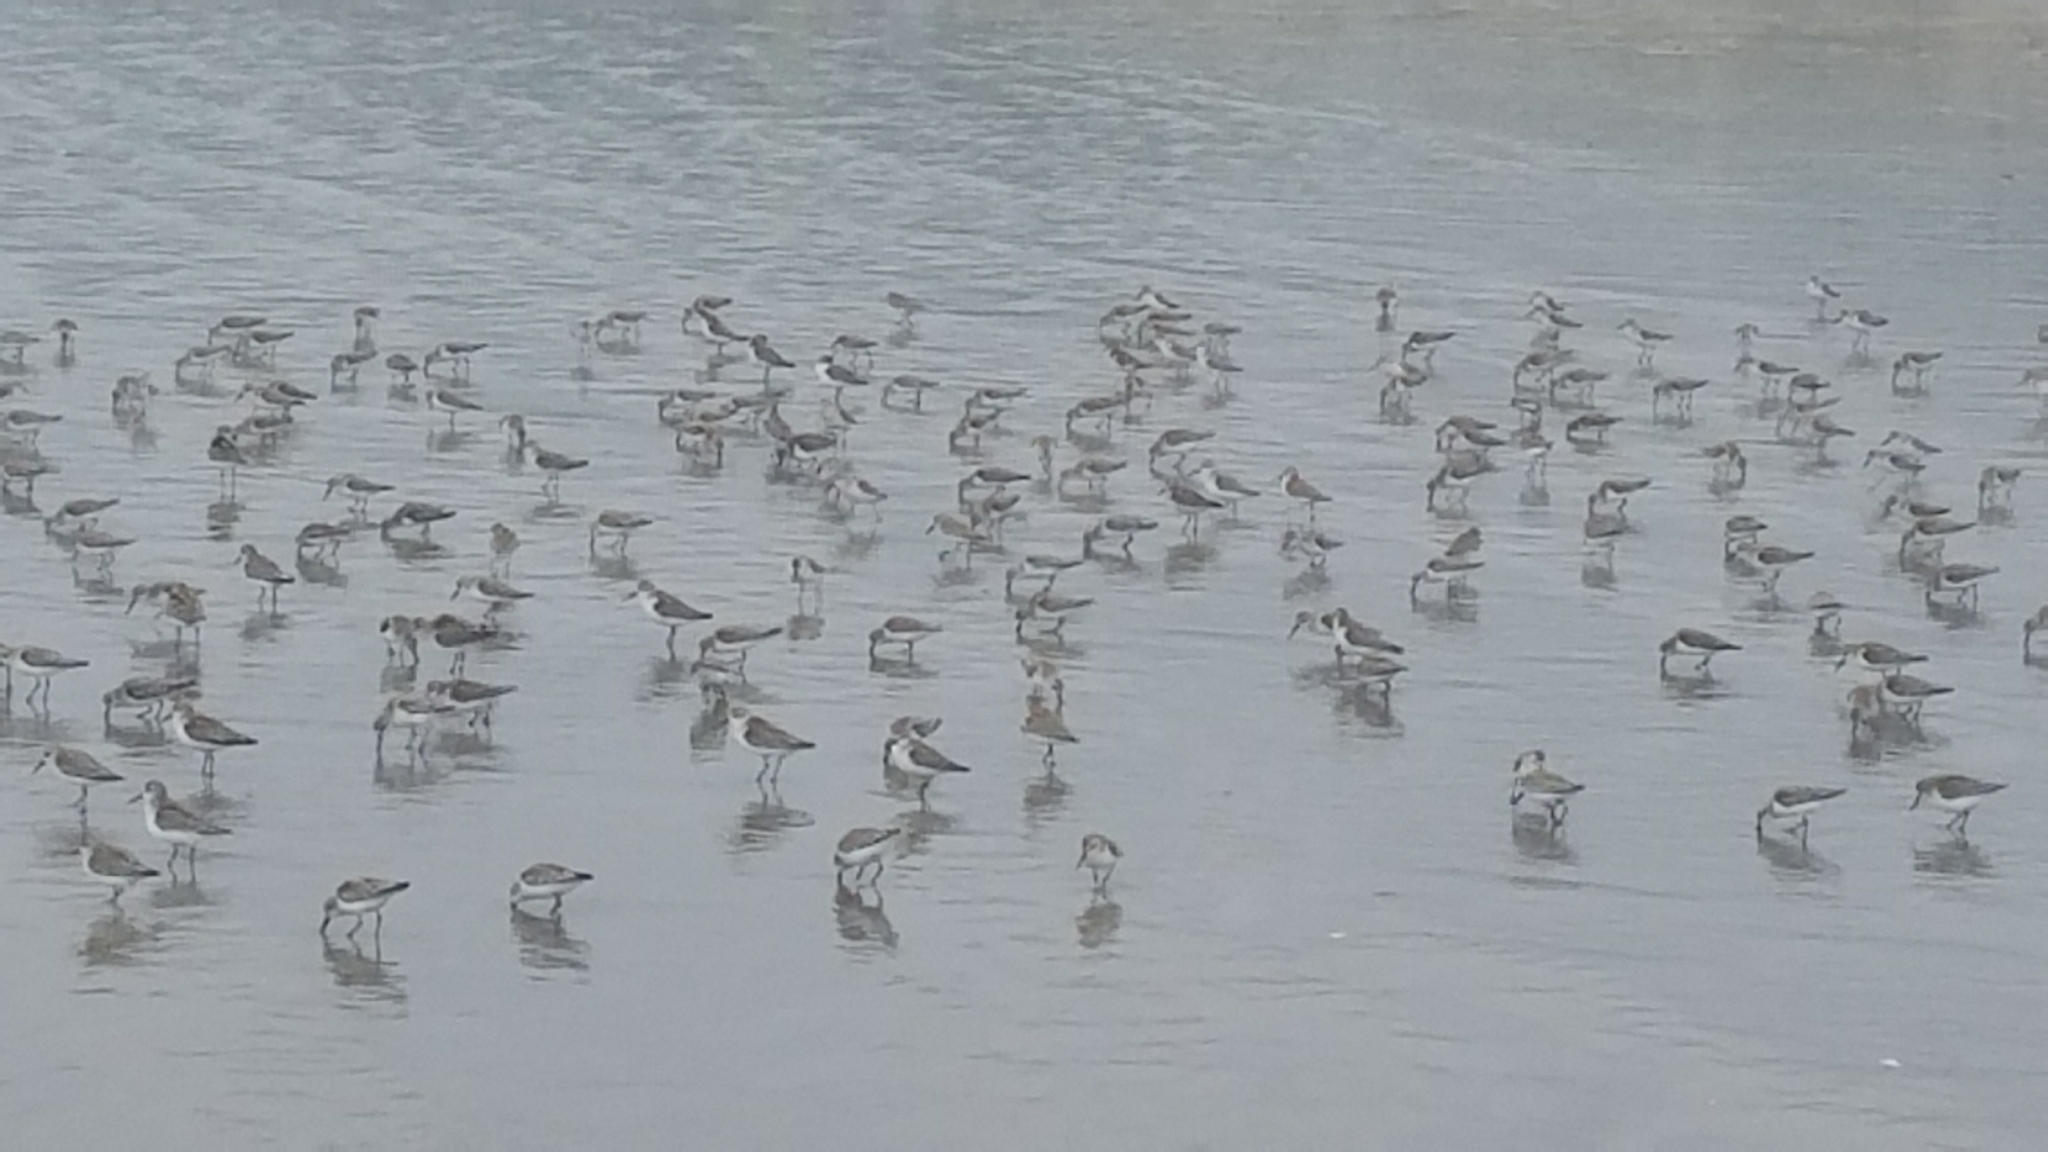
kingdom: Animalia
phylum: Chordata
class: Aves
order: Charadriiformes
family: Scolopacidae
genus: Calidris
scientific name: Calidris mauri
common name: Western sandpiper
